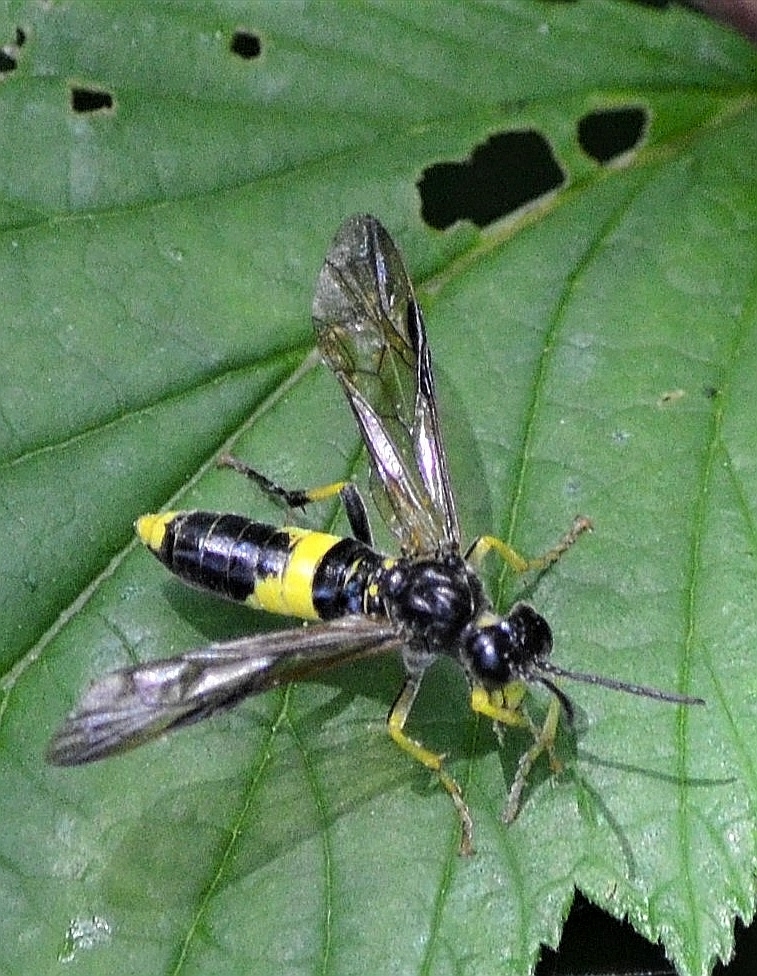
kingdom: Animalia
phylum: Arthropoda
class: Insecta
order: Hymenoptera
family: Tenthredinidae
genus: Tenthredo
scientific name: Tenthredo temula
